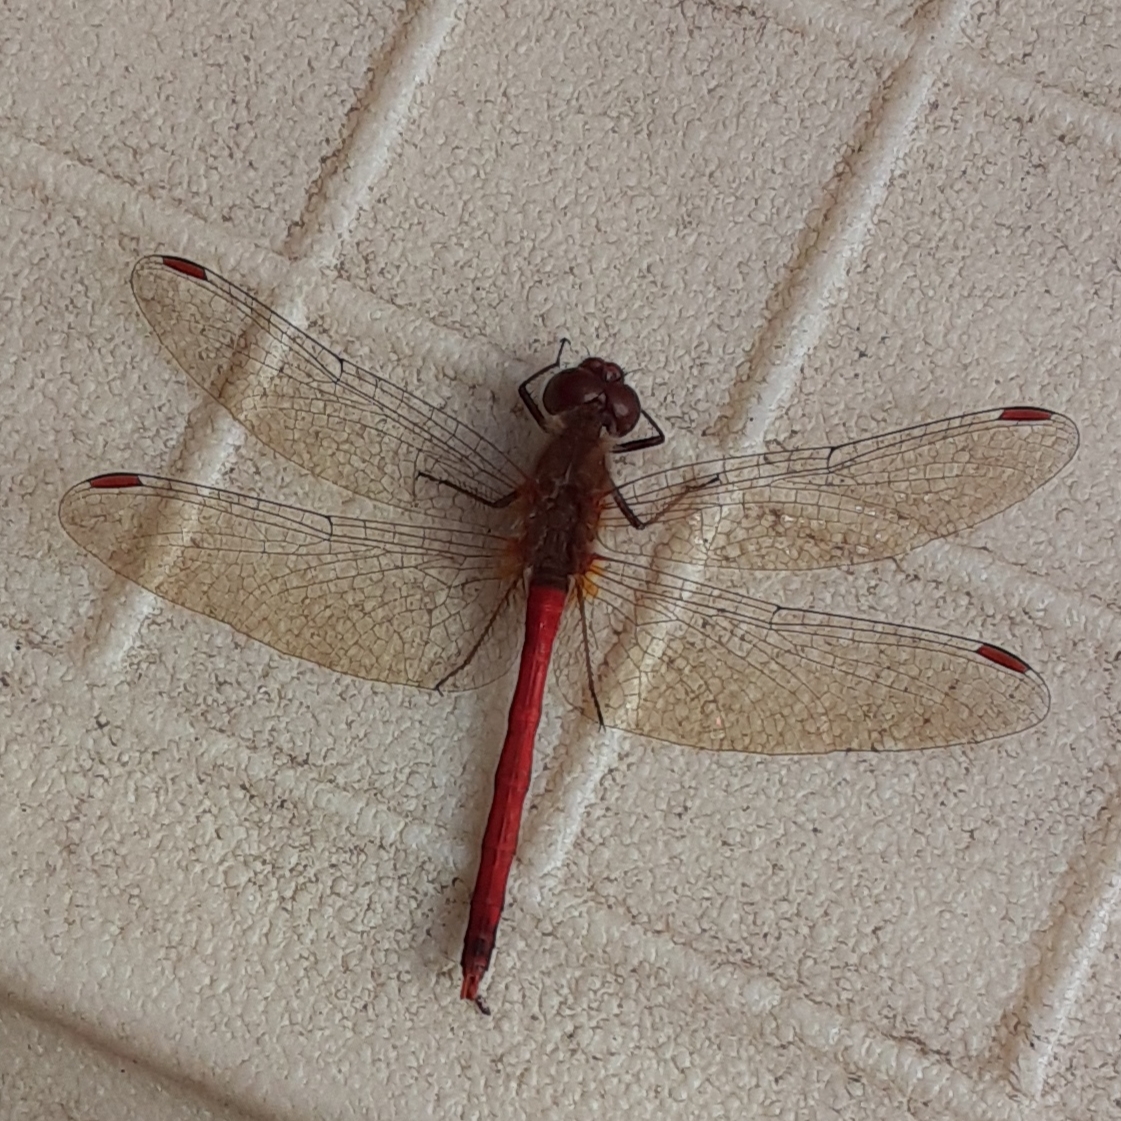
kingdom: Animalia
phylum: Arthropoda
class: Insecta
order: Odonata
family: Libellulidae
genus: Sympetrum
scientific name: Sympetrum vicinum
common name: Autumn meadowhawk
